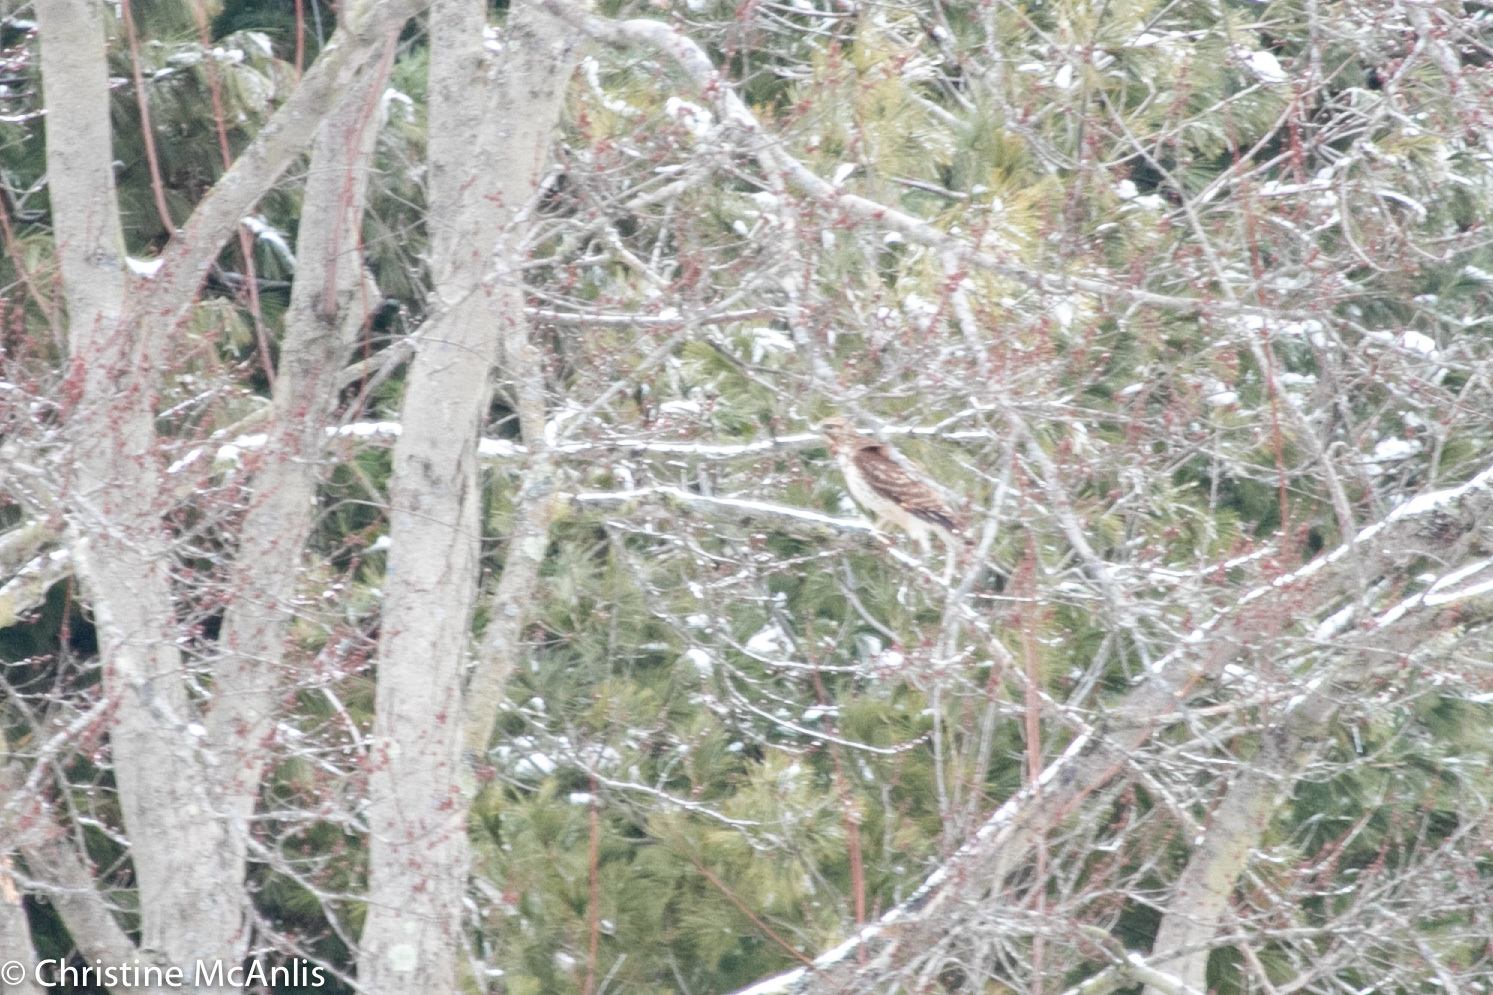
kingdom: Animalia
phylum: Chordata
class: Aves
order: Accipitriformes
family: Accipitridae
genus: Buteo
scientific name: Buteo jamaicensis
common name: Red-tailed hawk
